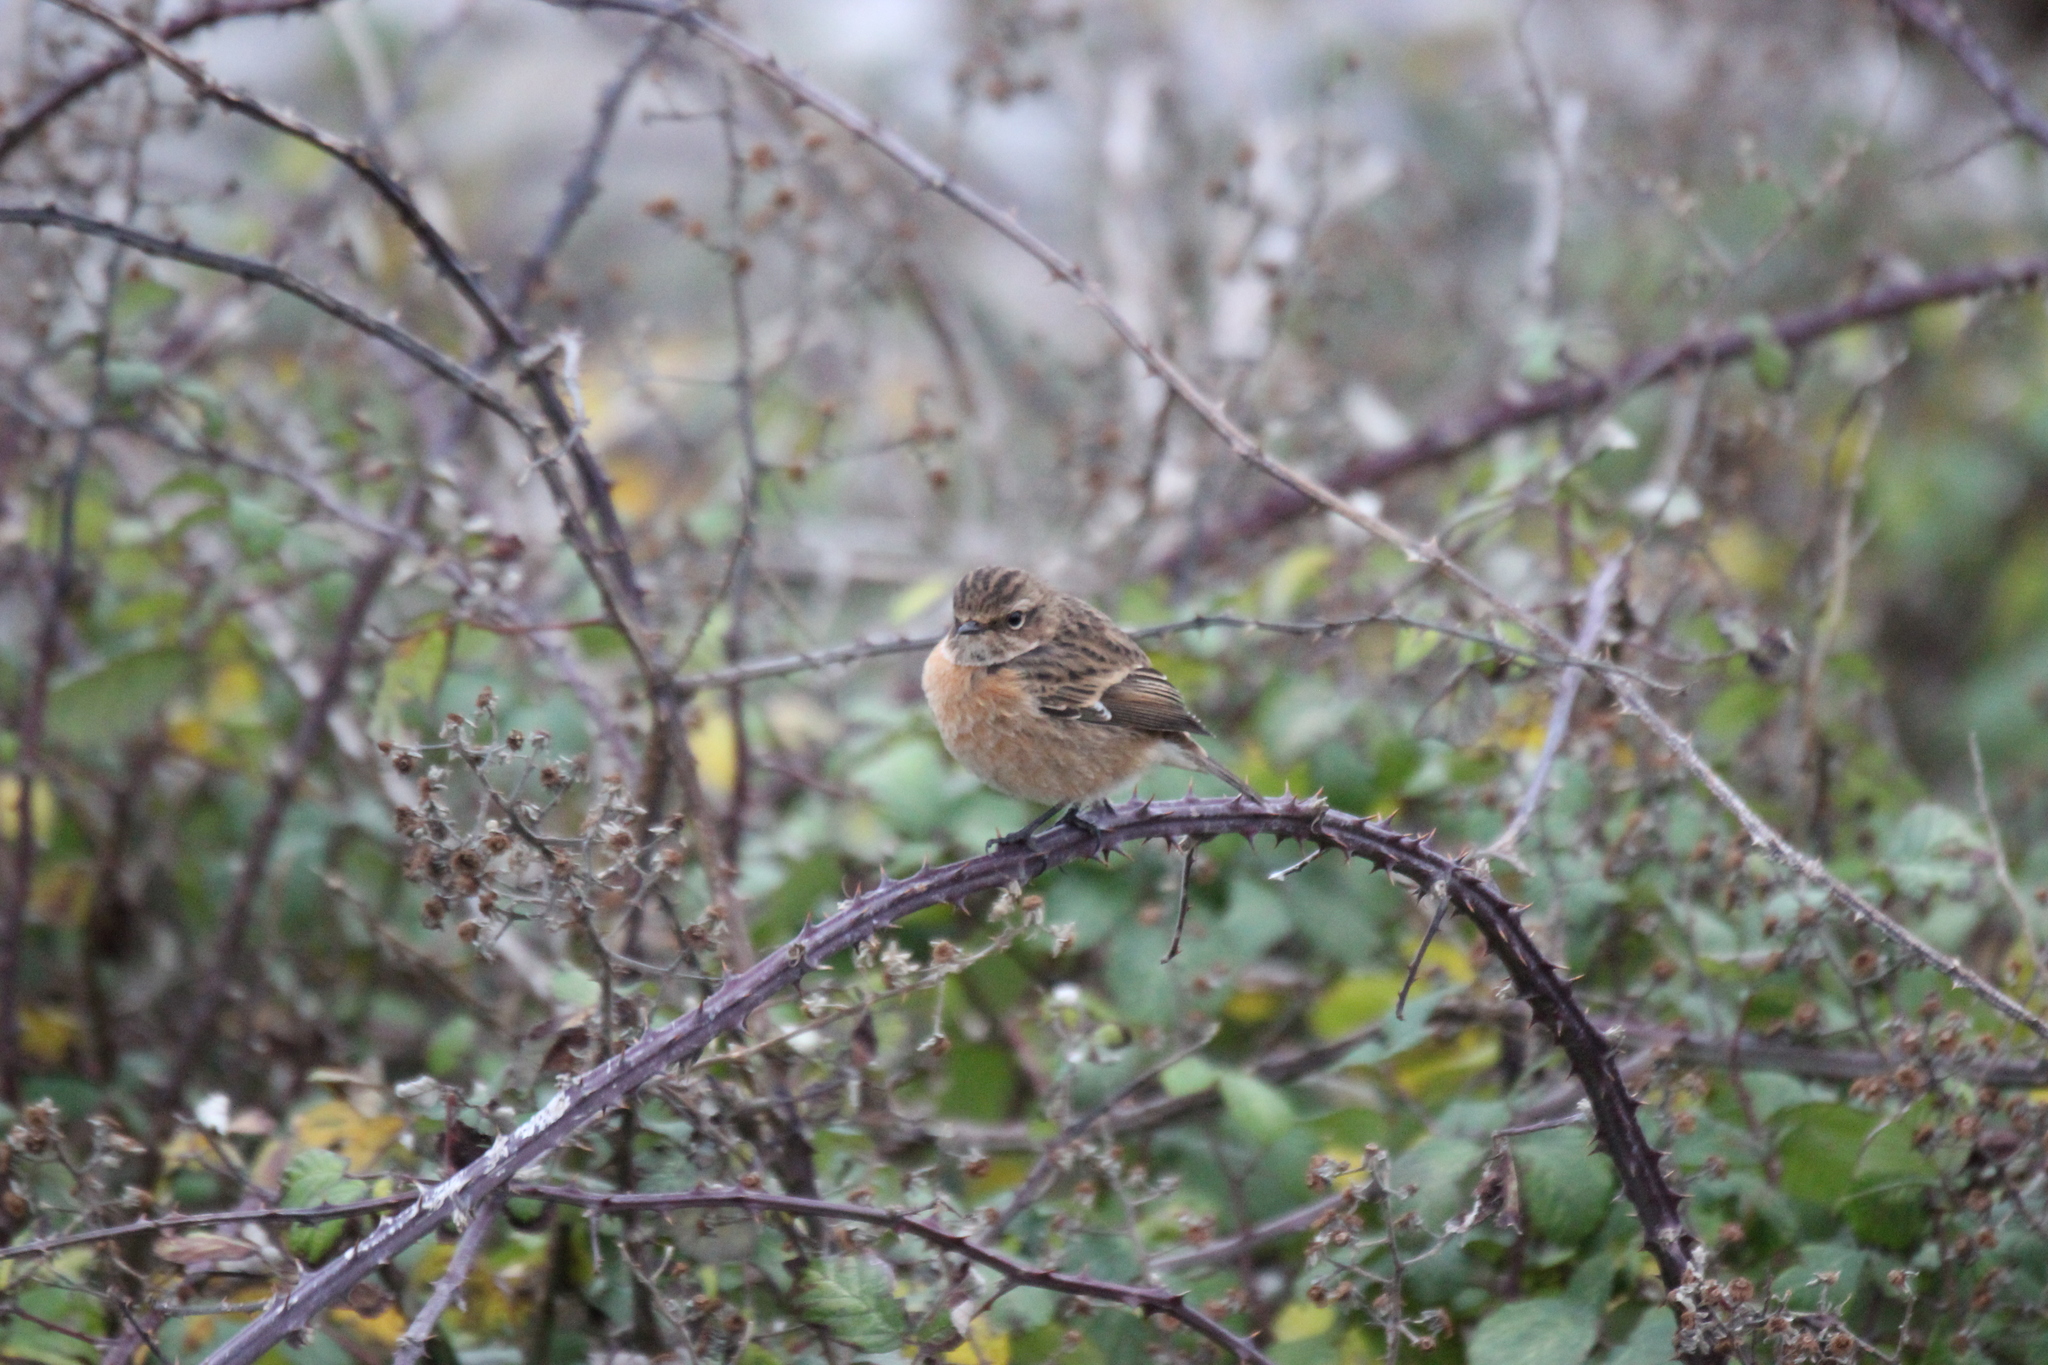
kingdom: Animalia
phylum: Chordata
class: Aves
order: Passeriformes
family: Muscicapidae
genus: Saxicola
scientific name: Saxicola rubicola
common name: European stonechat
